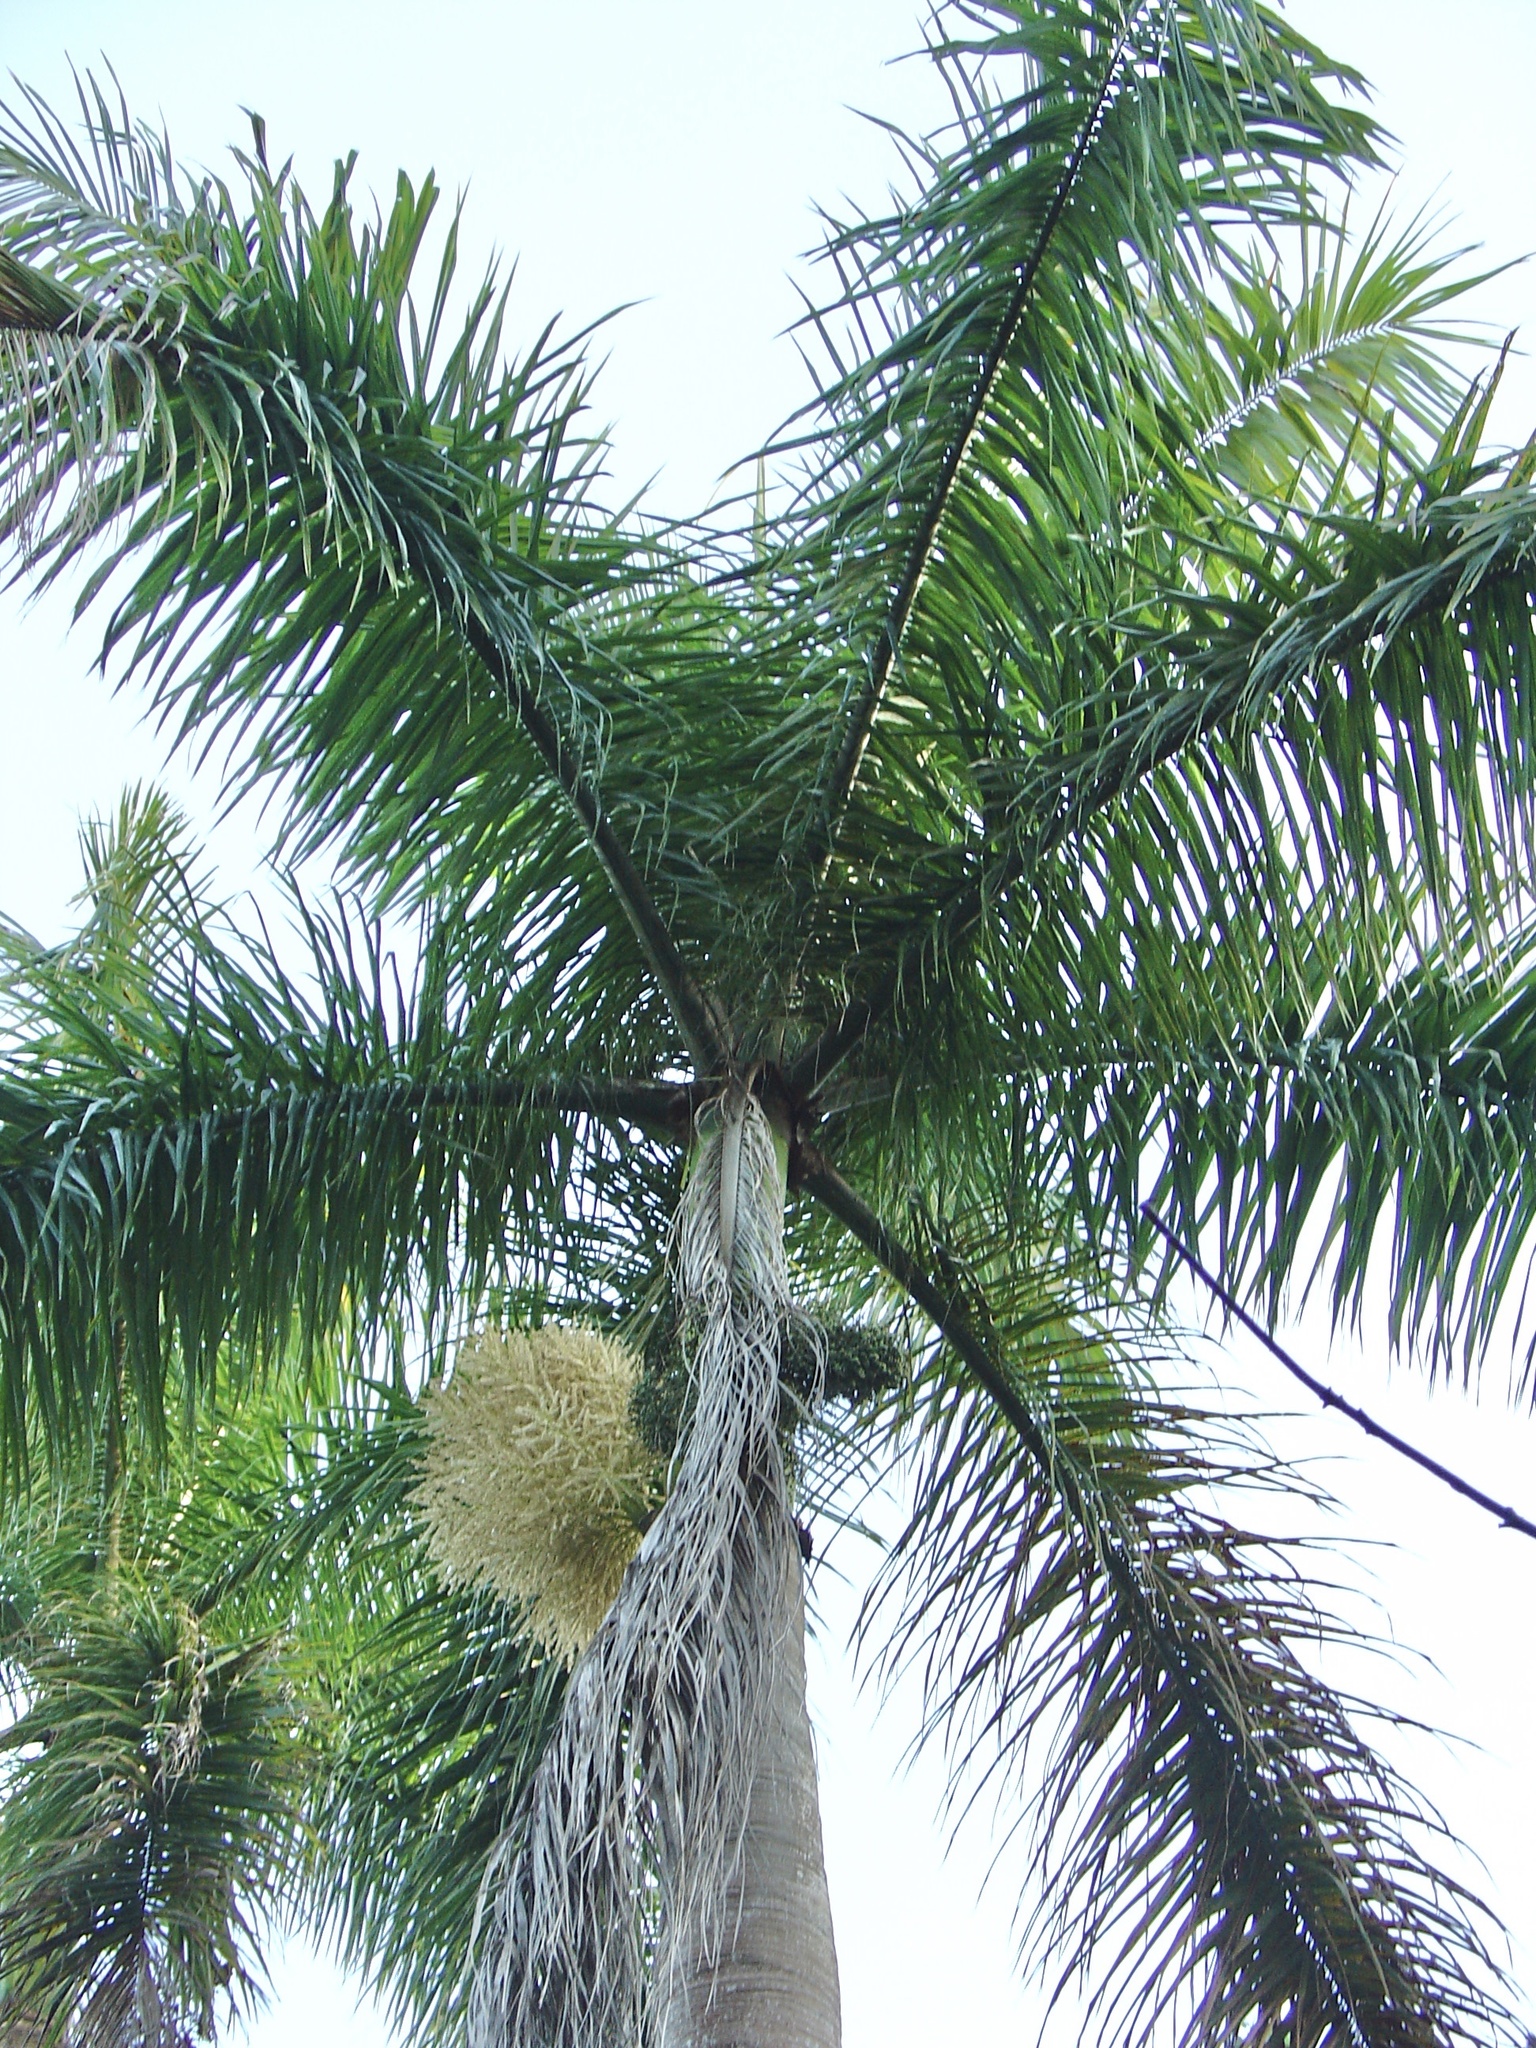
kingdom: Plantae
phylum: Tracheophyta
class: Liliopsida
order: Arecales
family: Arecaceae
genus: Roystonea
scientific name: Roystonea regia
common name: Florida royal palm
